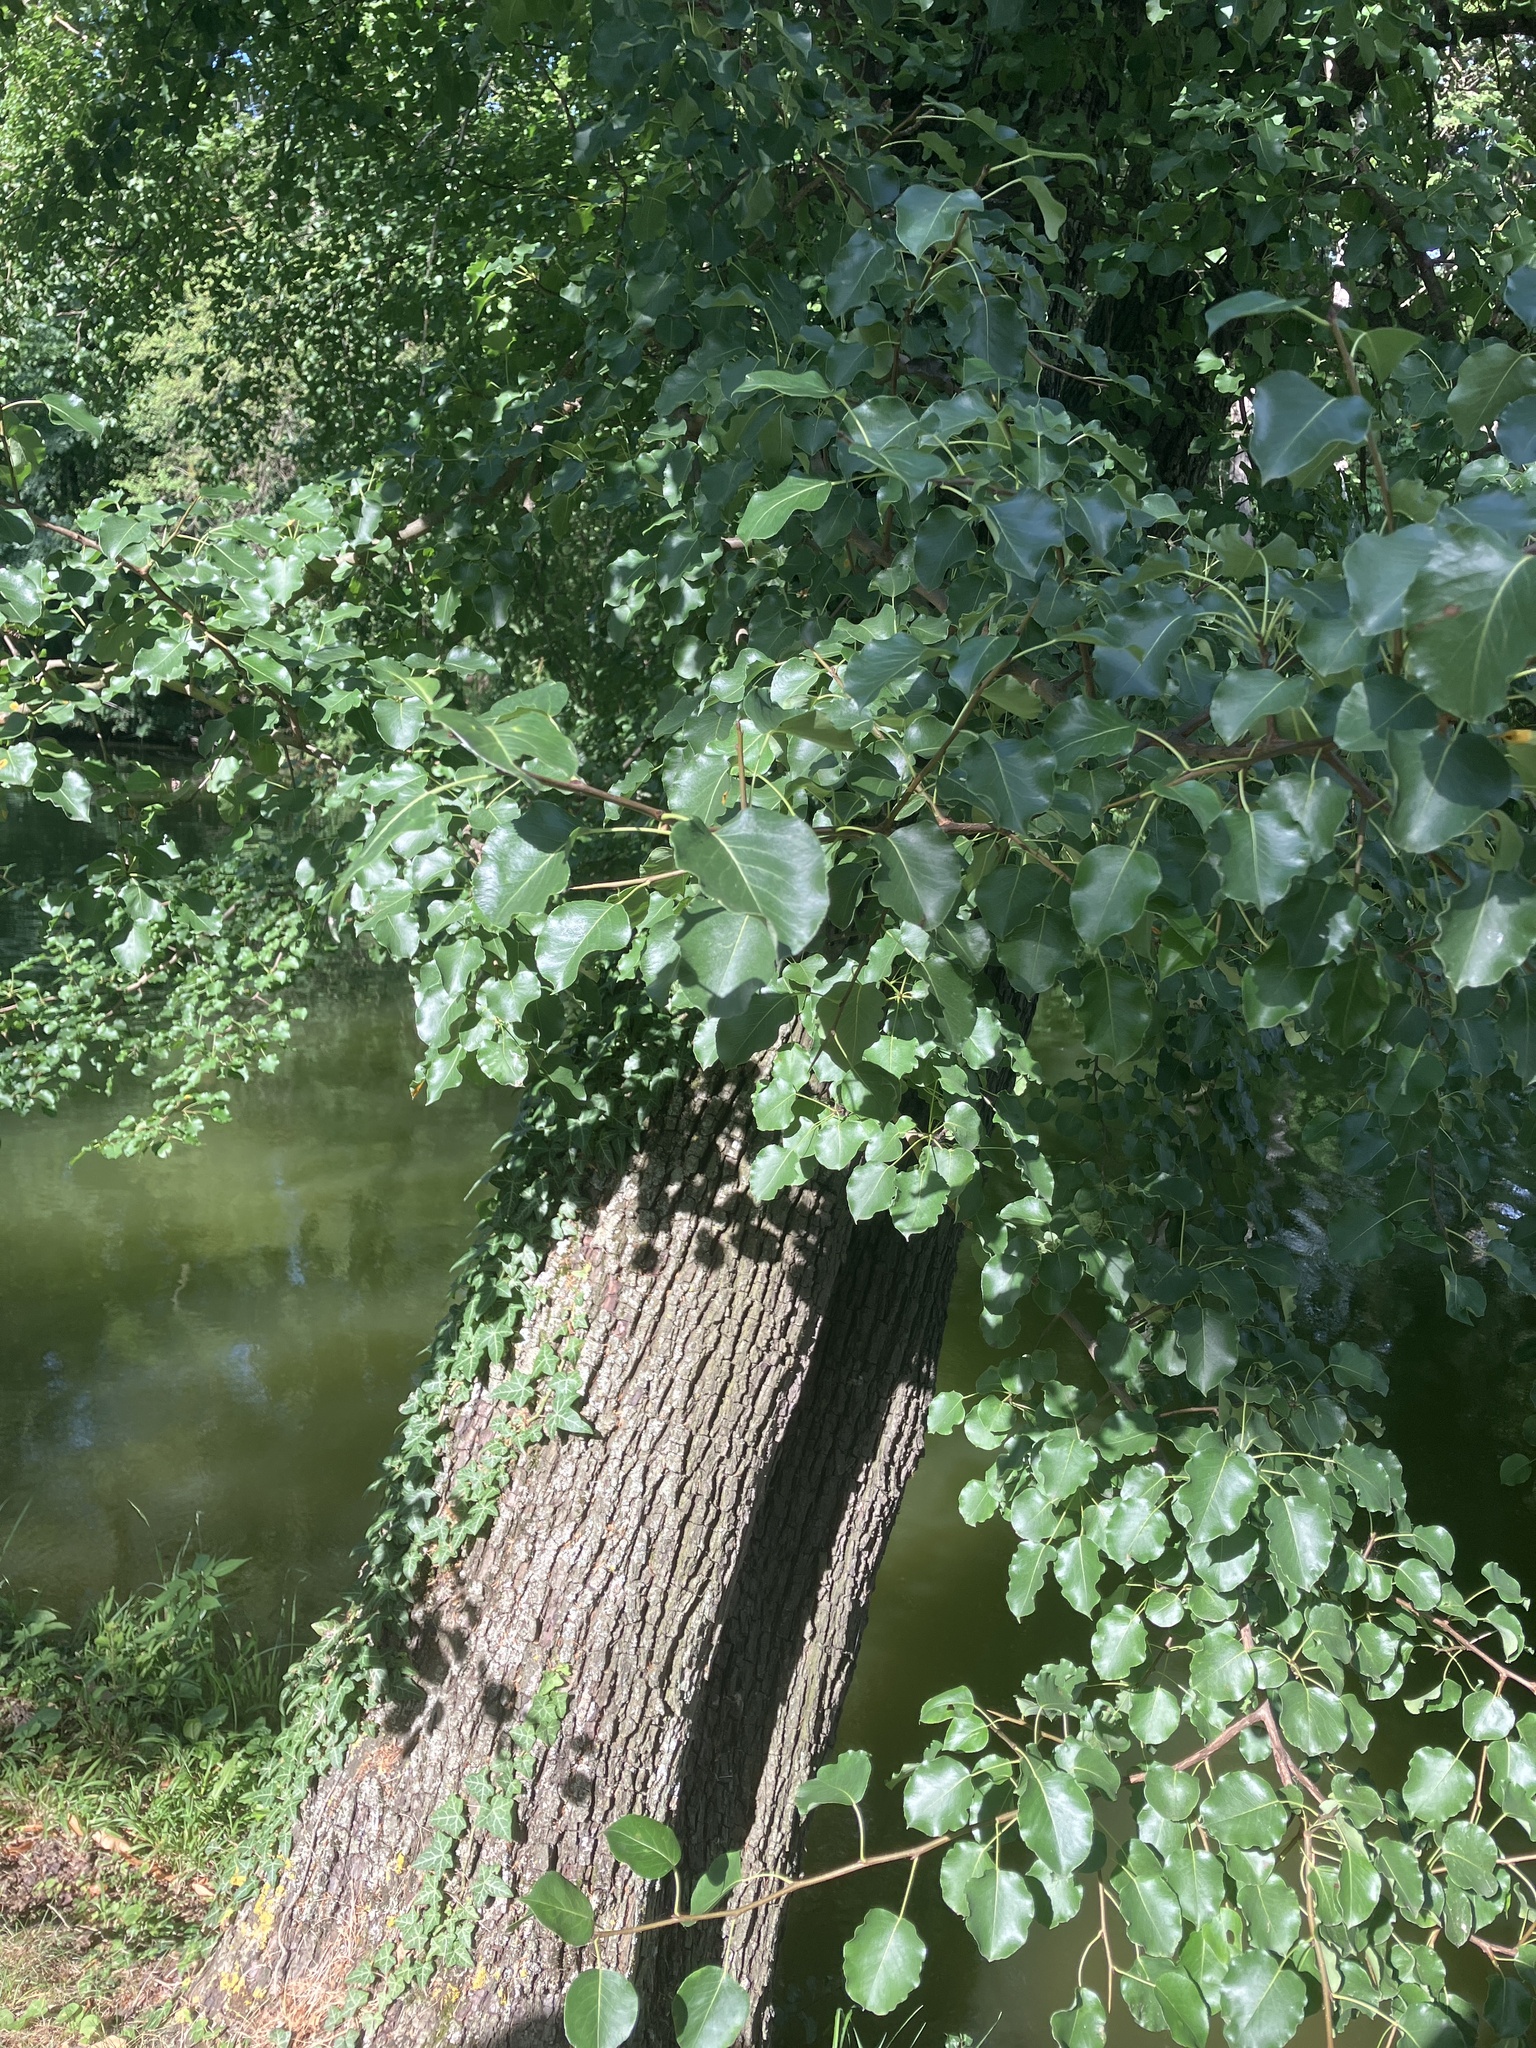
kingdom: Plantae
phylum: Tracheophyta
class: Magnoliopsida
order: Rosales
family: Rosaceae
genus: Pyrus
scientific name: Pyrus
